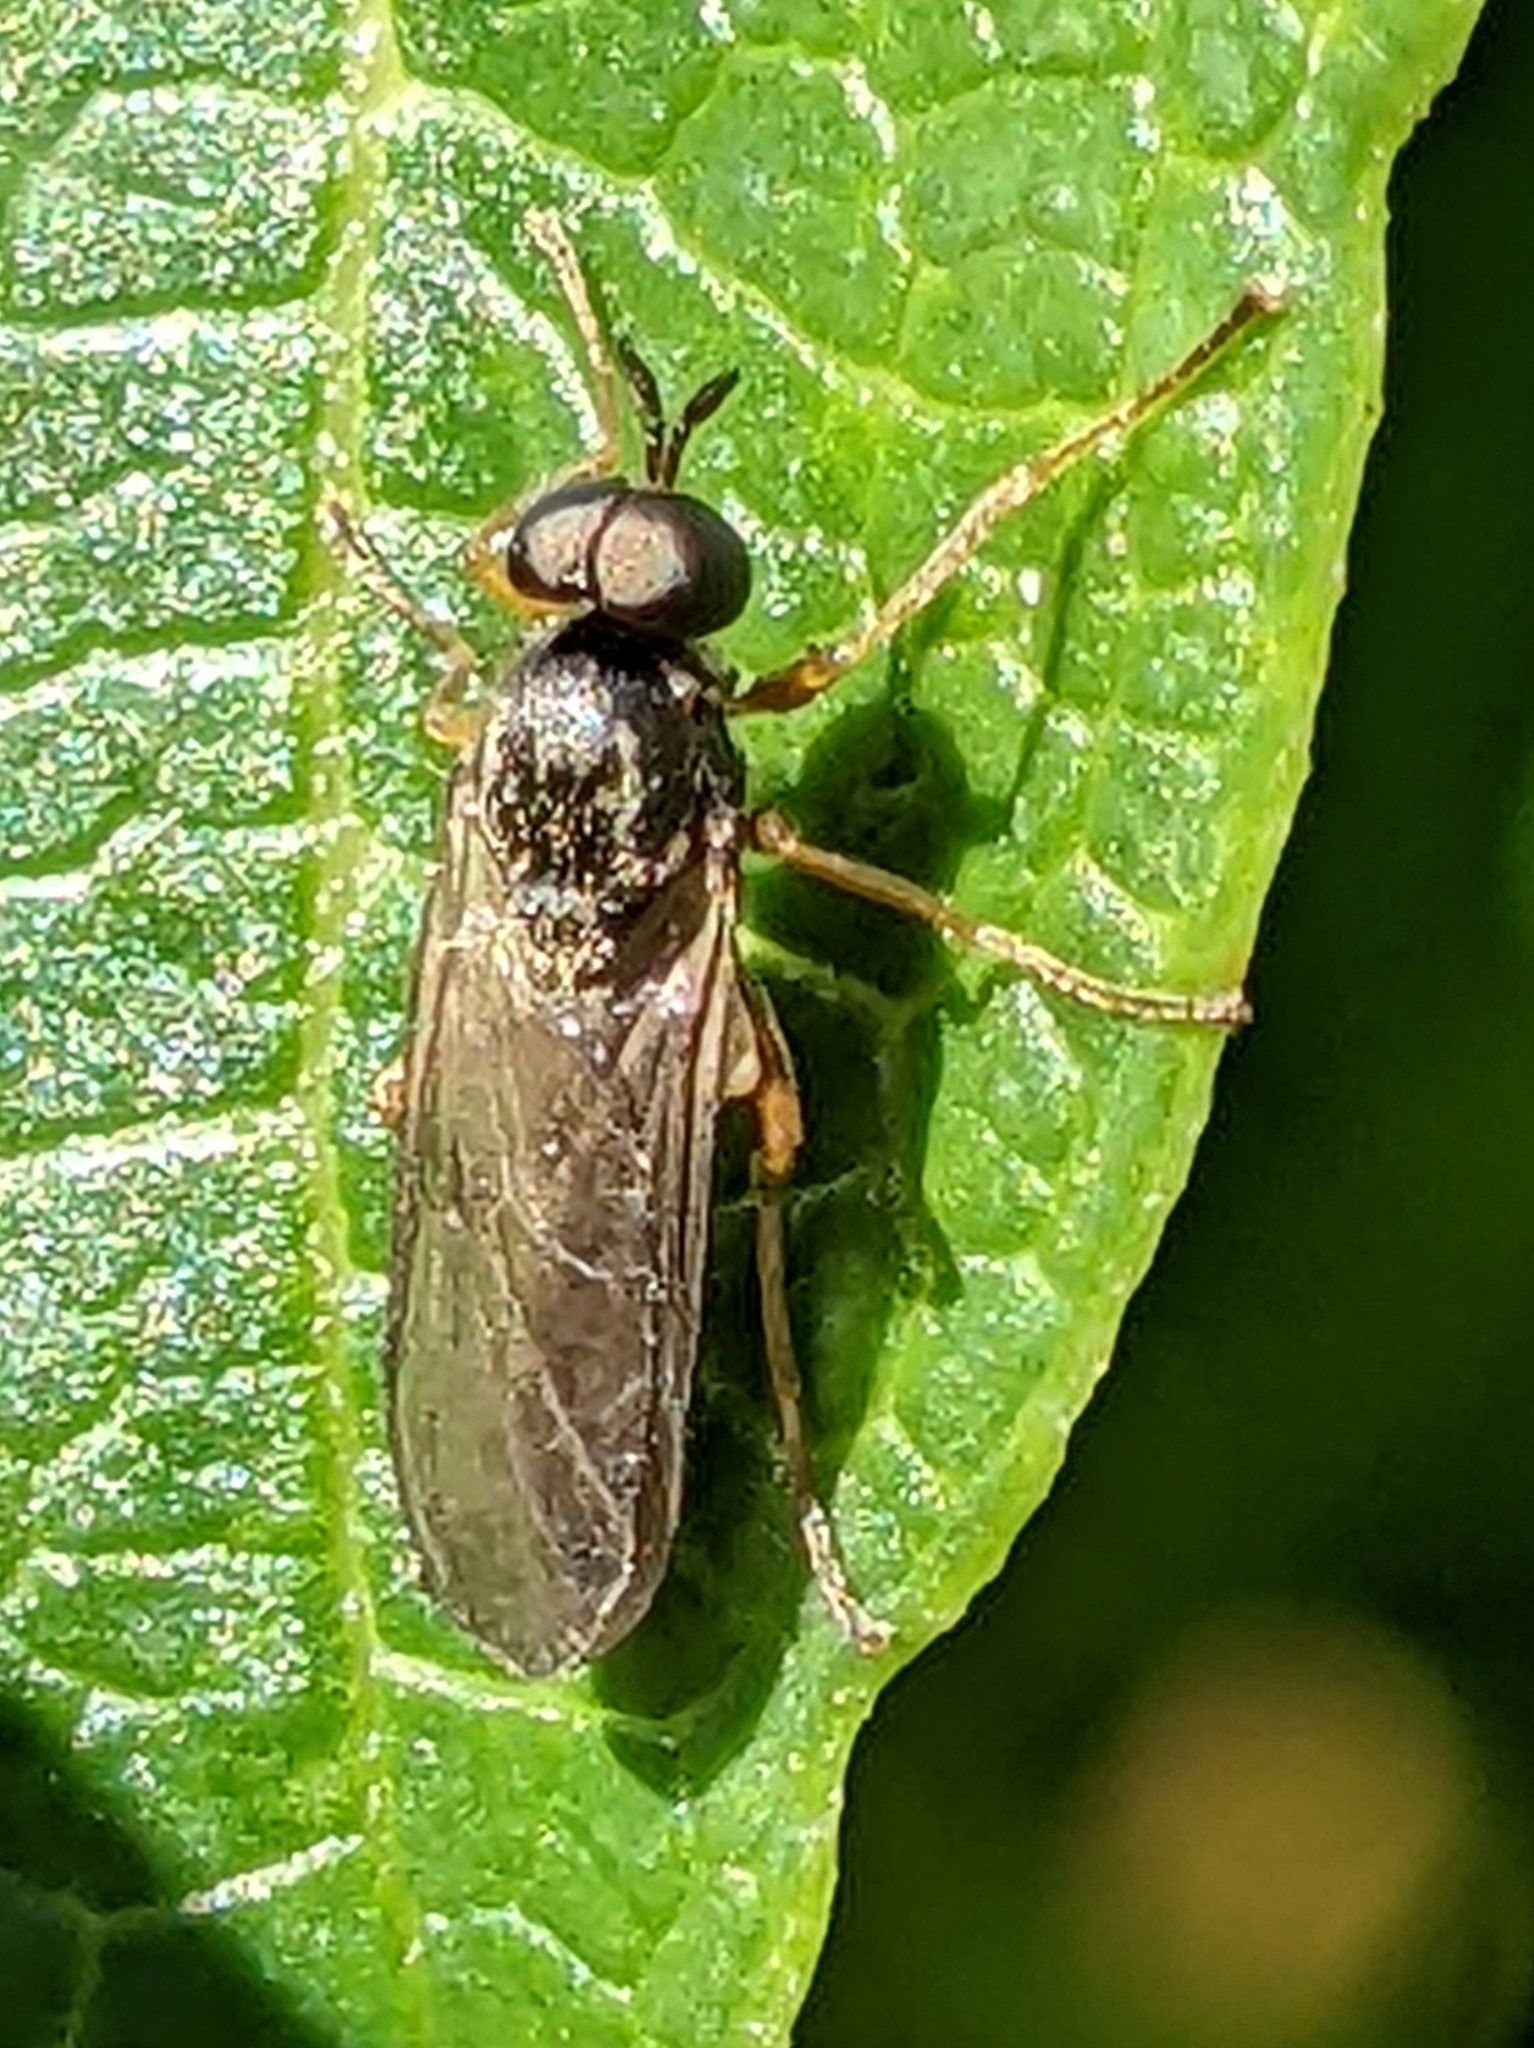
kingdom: Animalia
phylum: Arthropoda
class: Insecta
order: Diptera
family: Stratiomyidae
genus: Inopus
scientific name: Inopus rubriceps
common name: Soldier fly
